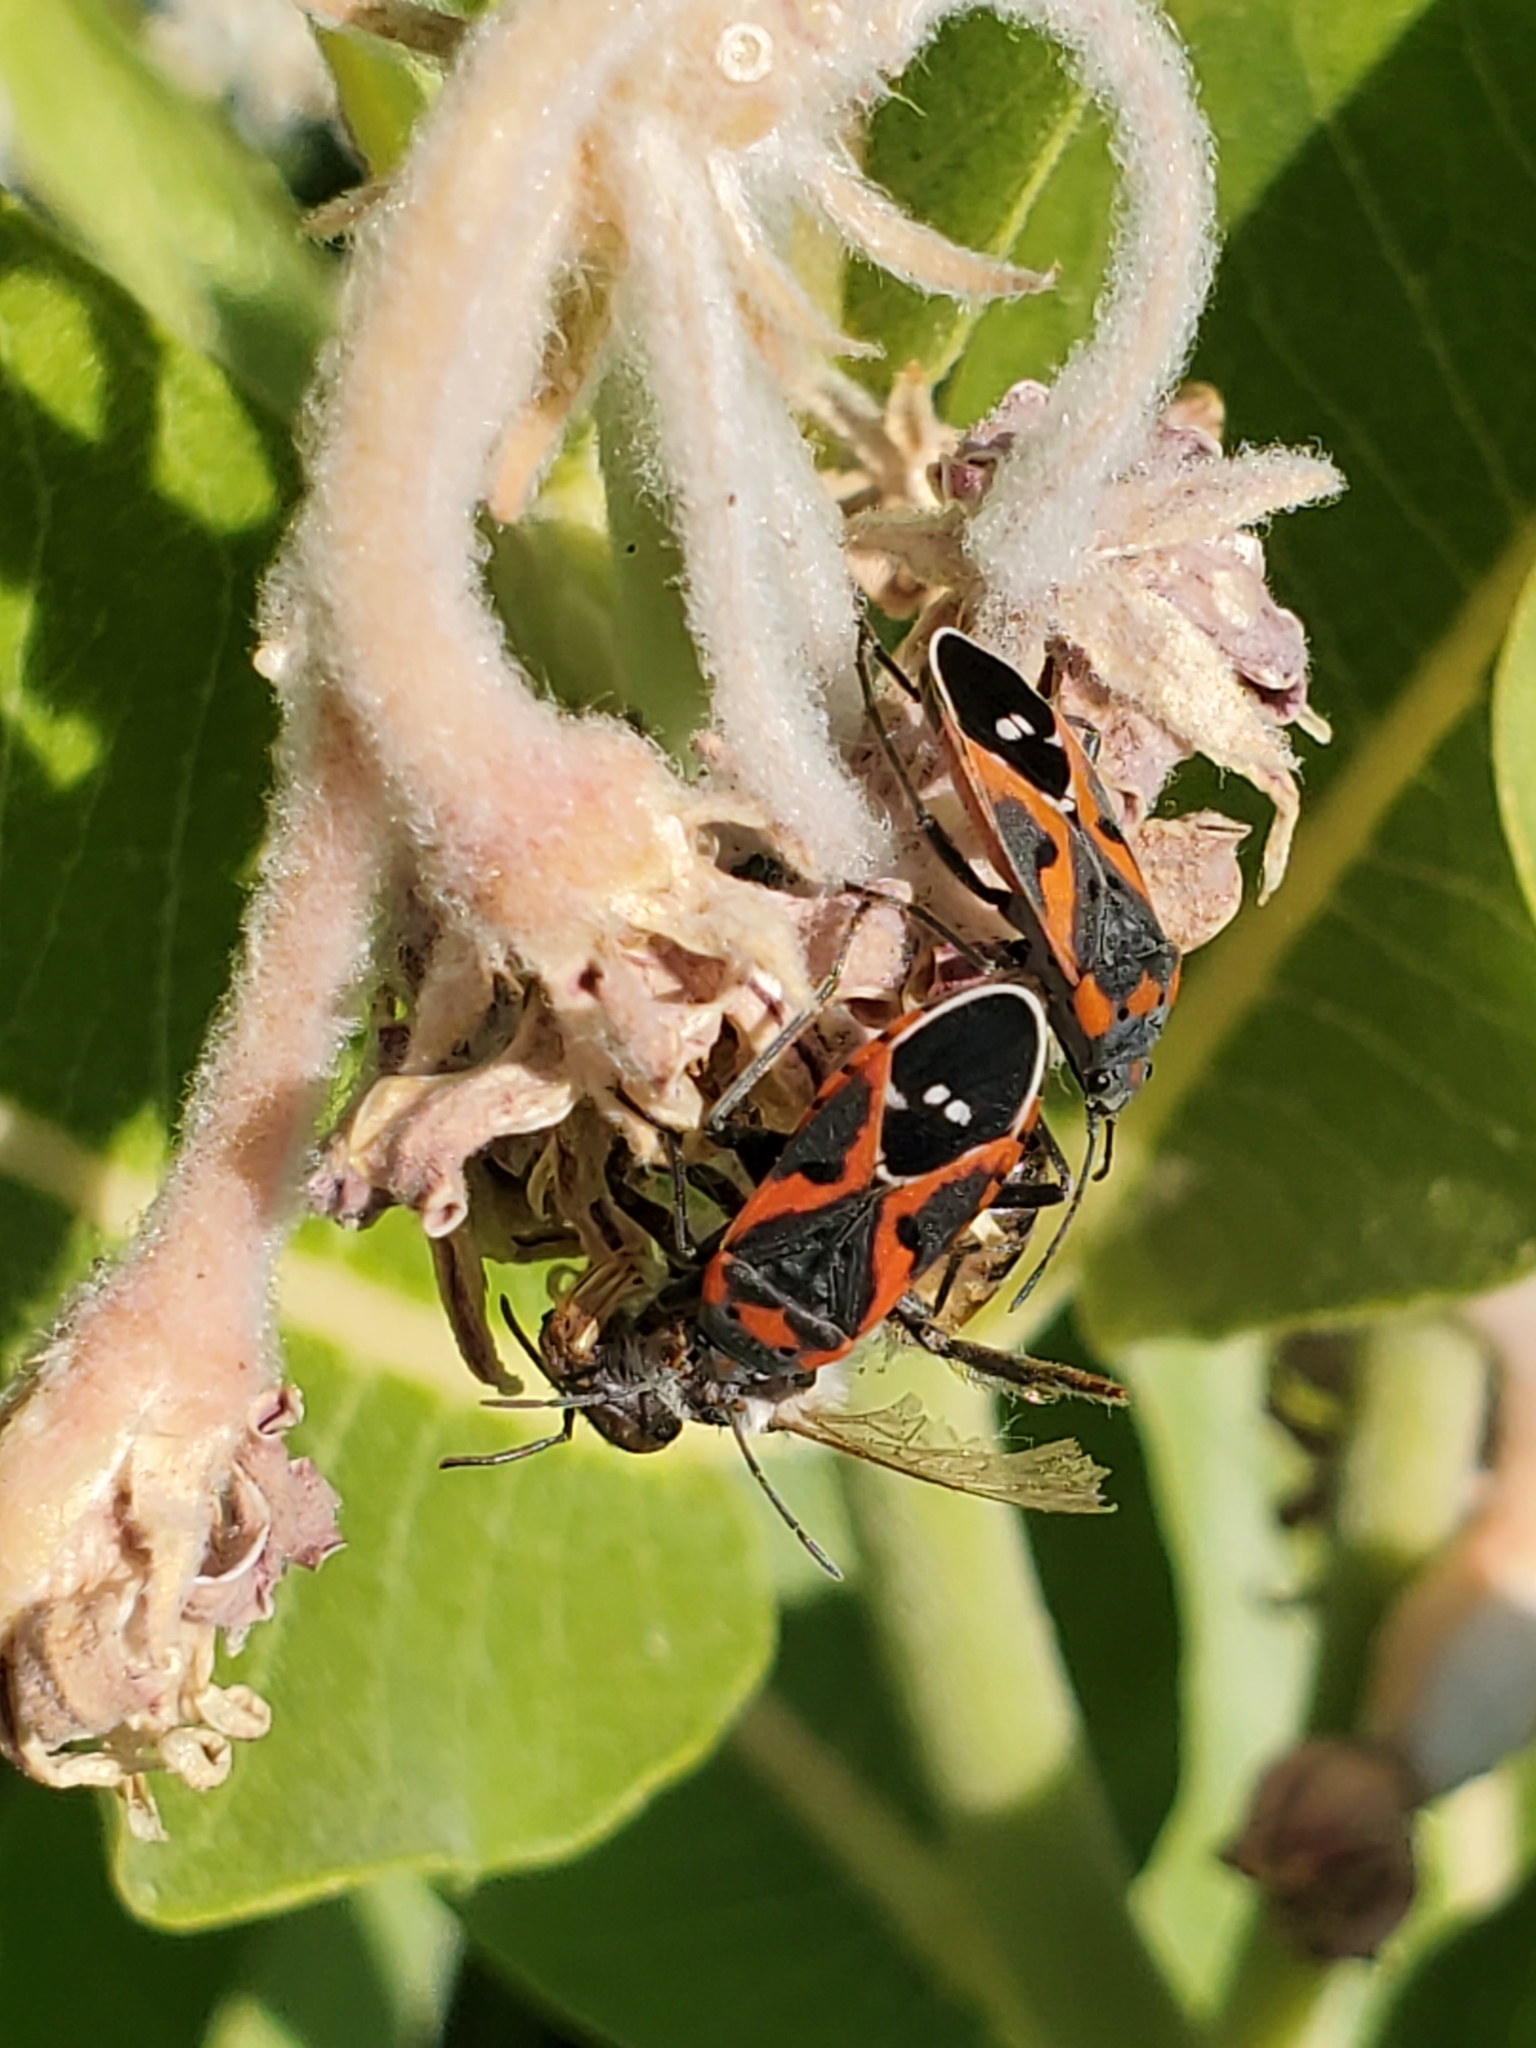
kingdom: Animalia
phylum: Arthropoda
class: Insecta
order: Hemiptera
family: Lygaeidae
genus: Lygaeus
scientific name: Lygaeus kalmii
